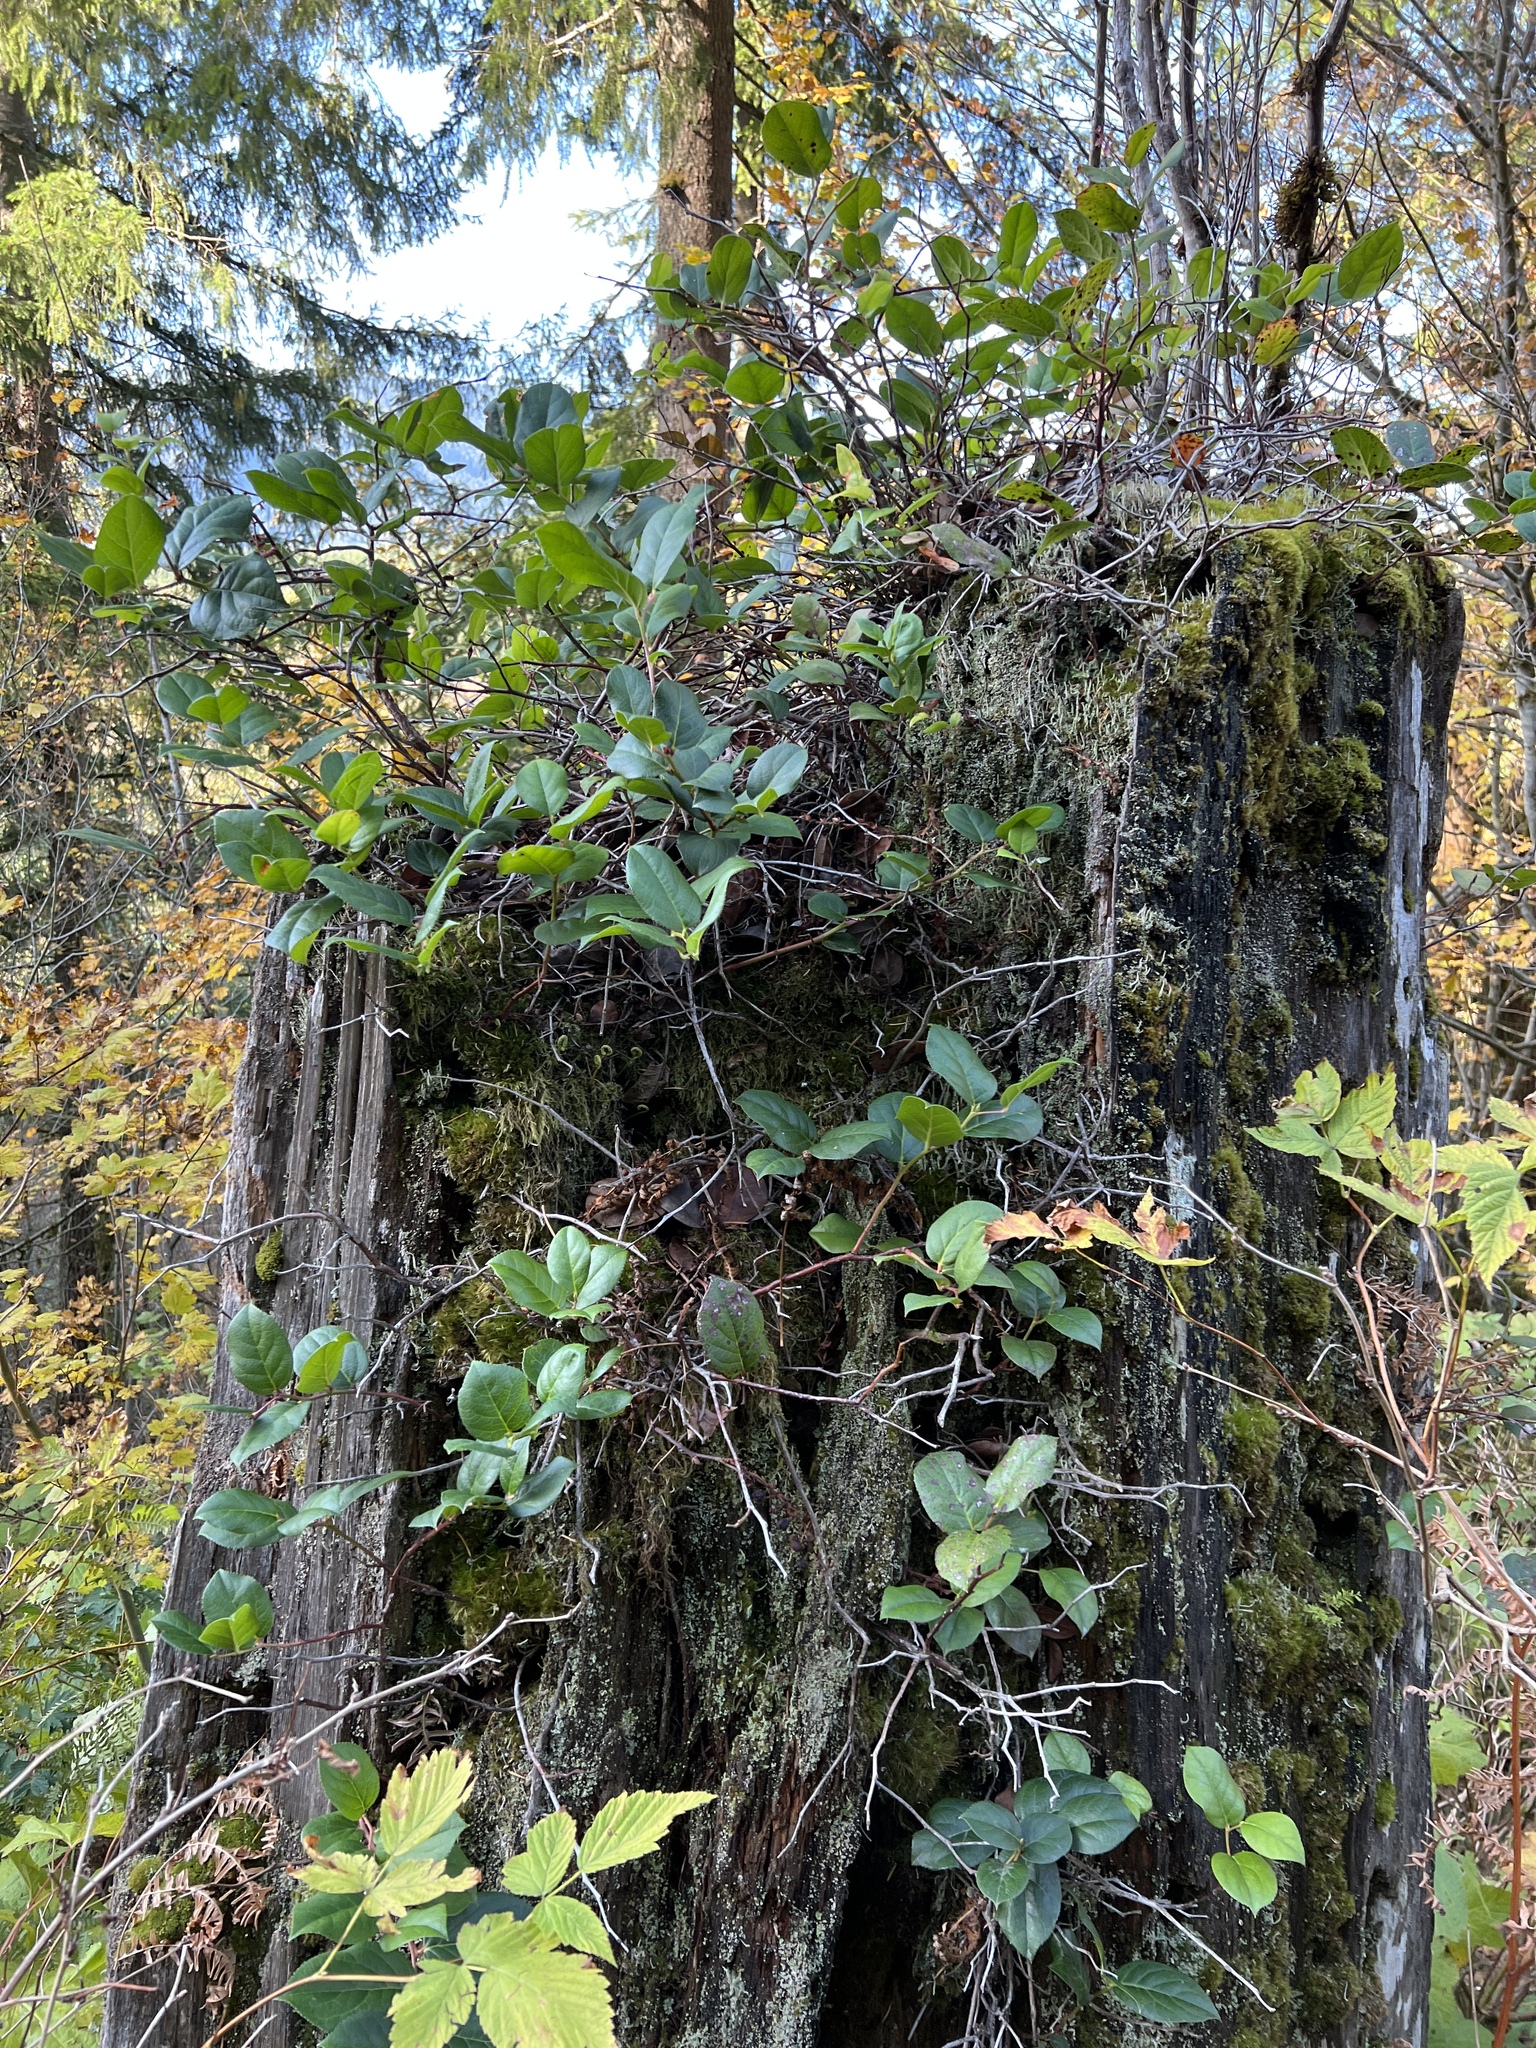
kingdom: Plantae
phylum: Tracheophyta
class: Magnoliopsida
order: Ericales
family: Ericaceae
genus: Gaultheria
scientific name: Gaultheria shallon
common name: Shallon
